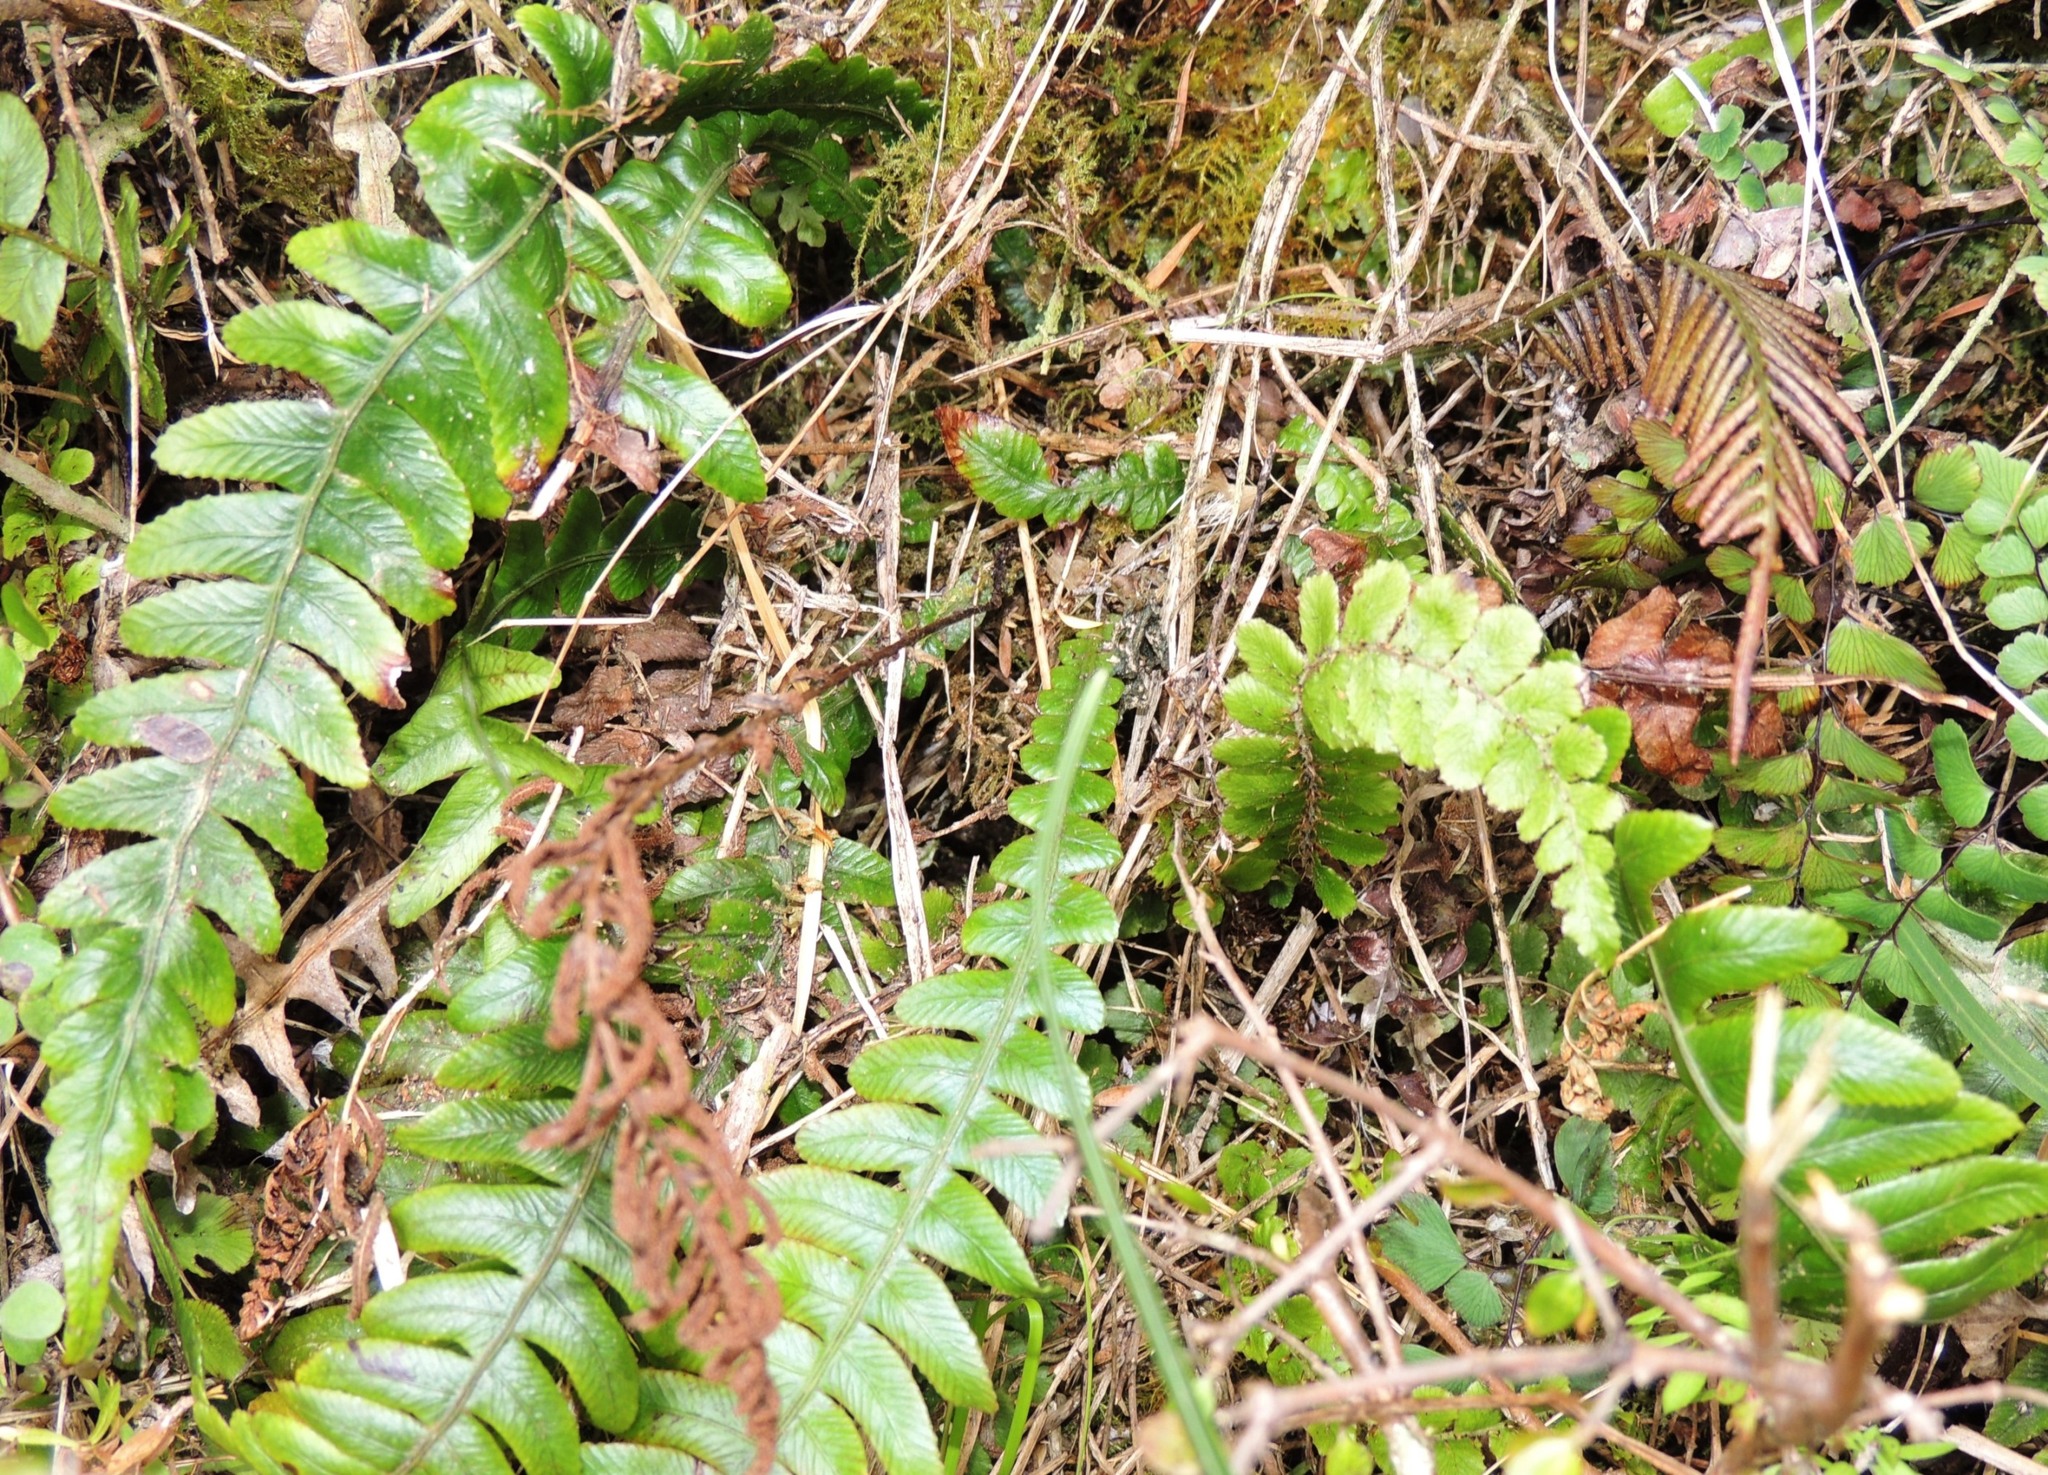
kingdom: Plantae
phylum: Tracheophyta
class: Polypodiopsida
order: Polypodiales
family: Blechnaceae
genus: Austroblechnum
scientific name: Austroblechnum lanceolatum
